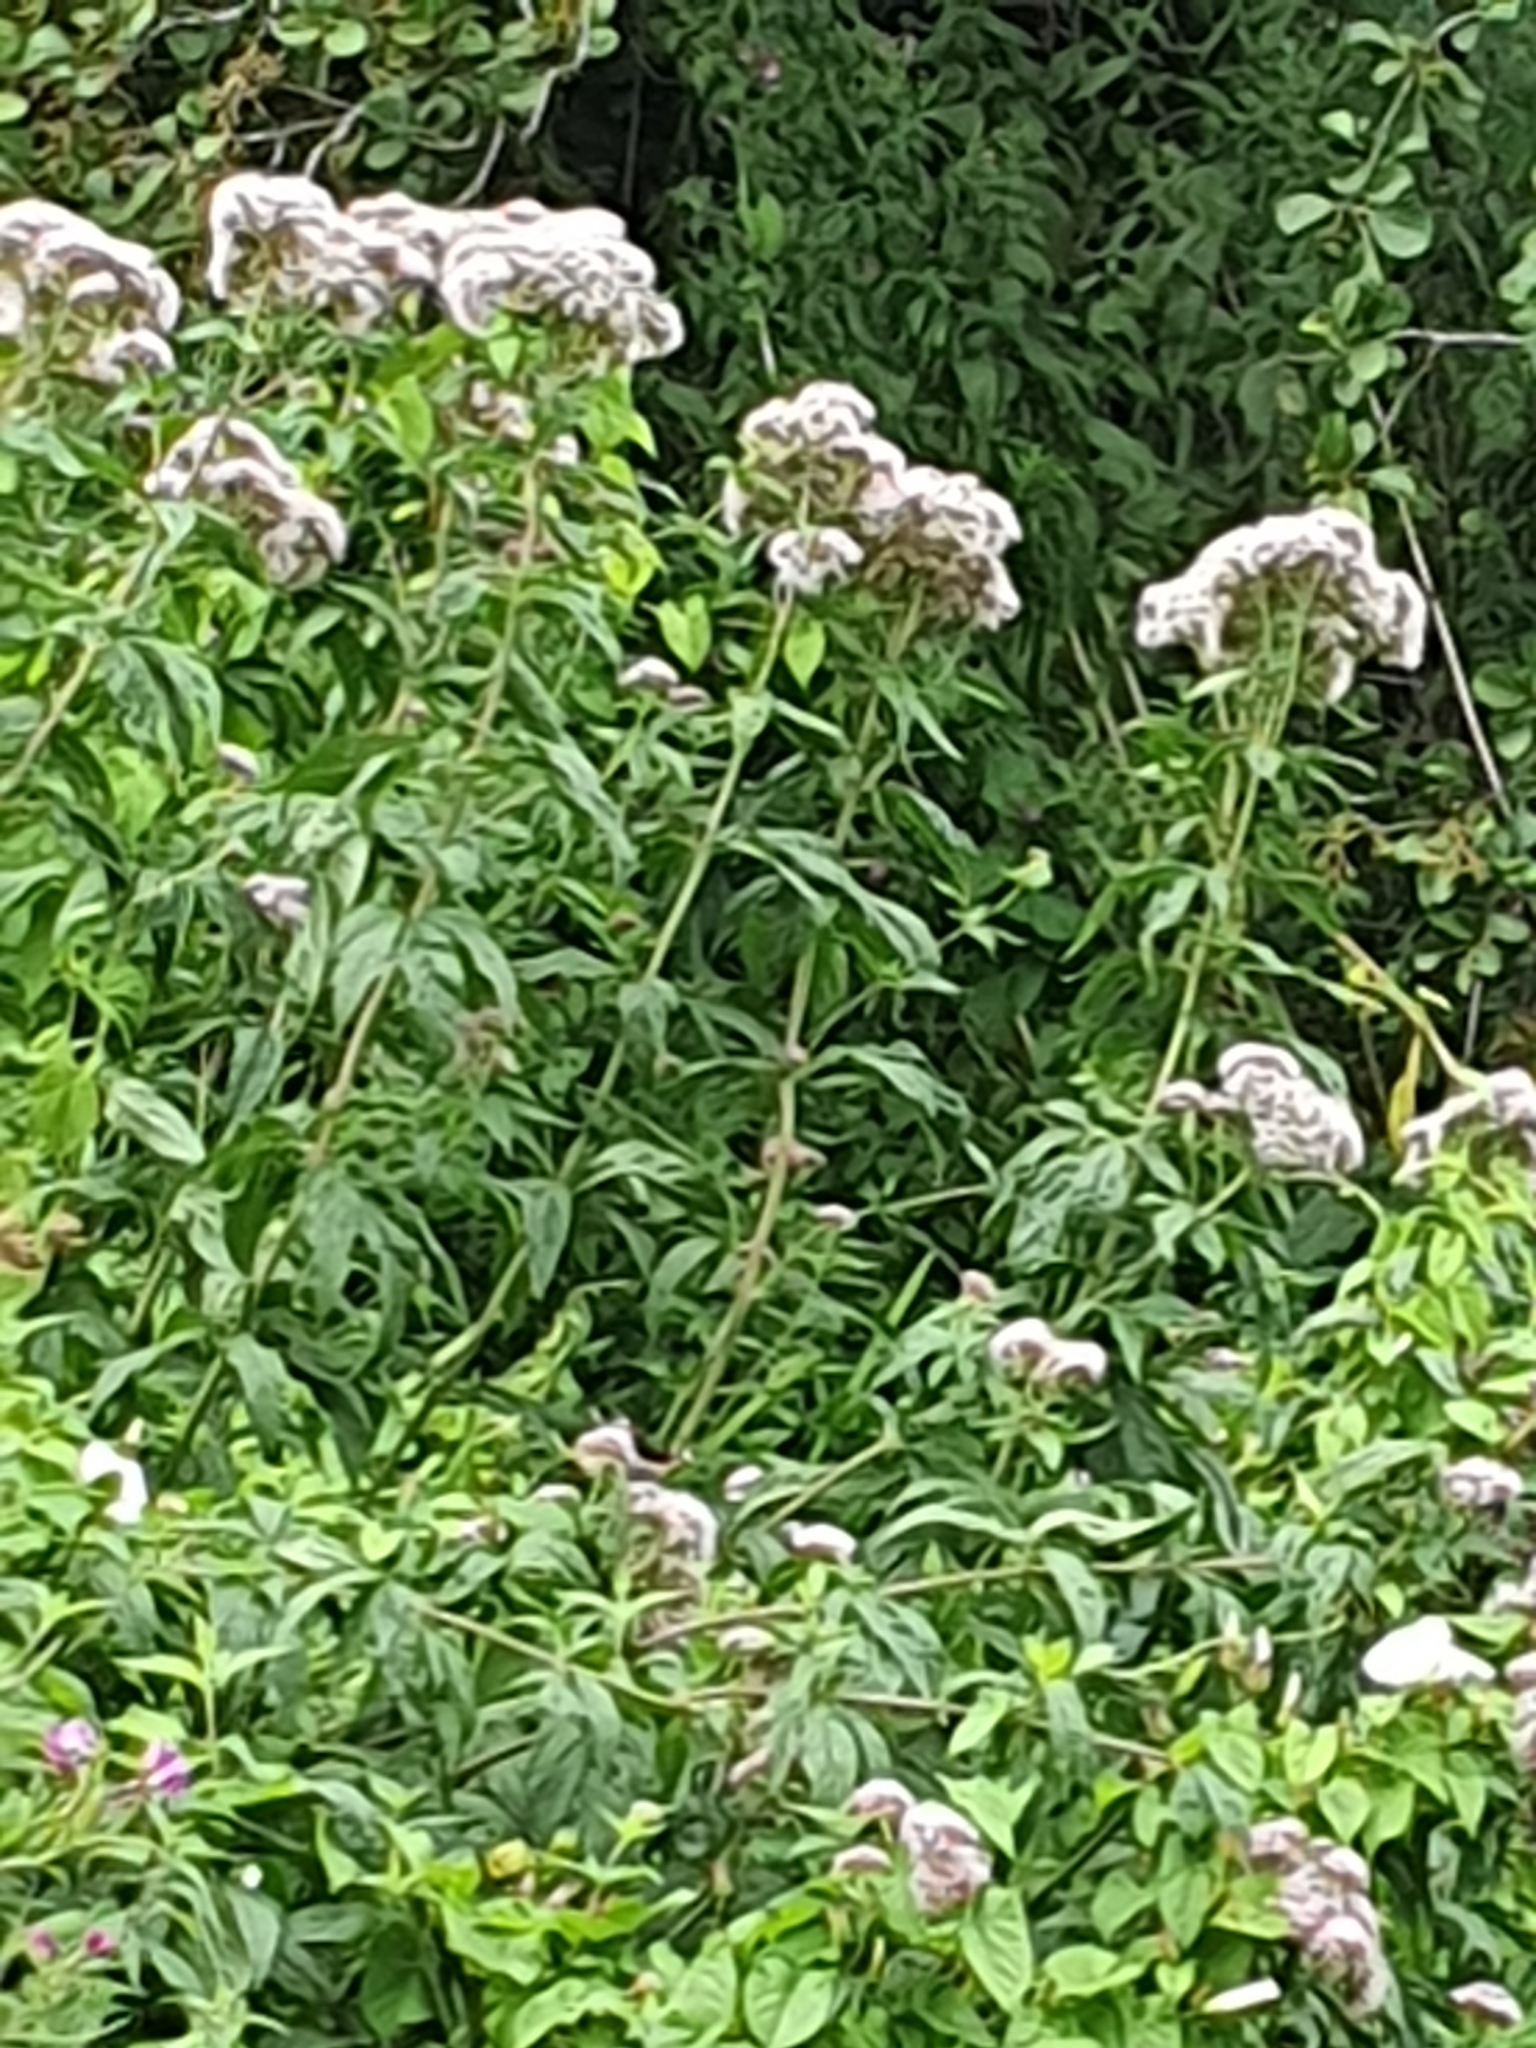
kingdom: Plantae
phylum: Tracheophyta
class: Magnoliopsida
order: Asterales
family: Asteraceae
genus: Eupatorium
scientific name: Eupatorium cannabinum
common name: Hemp-agrimony
